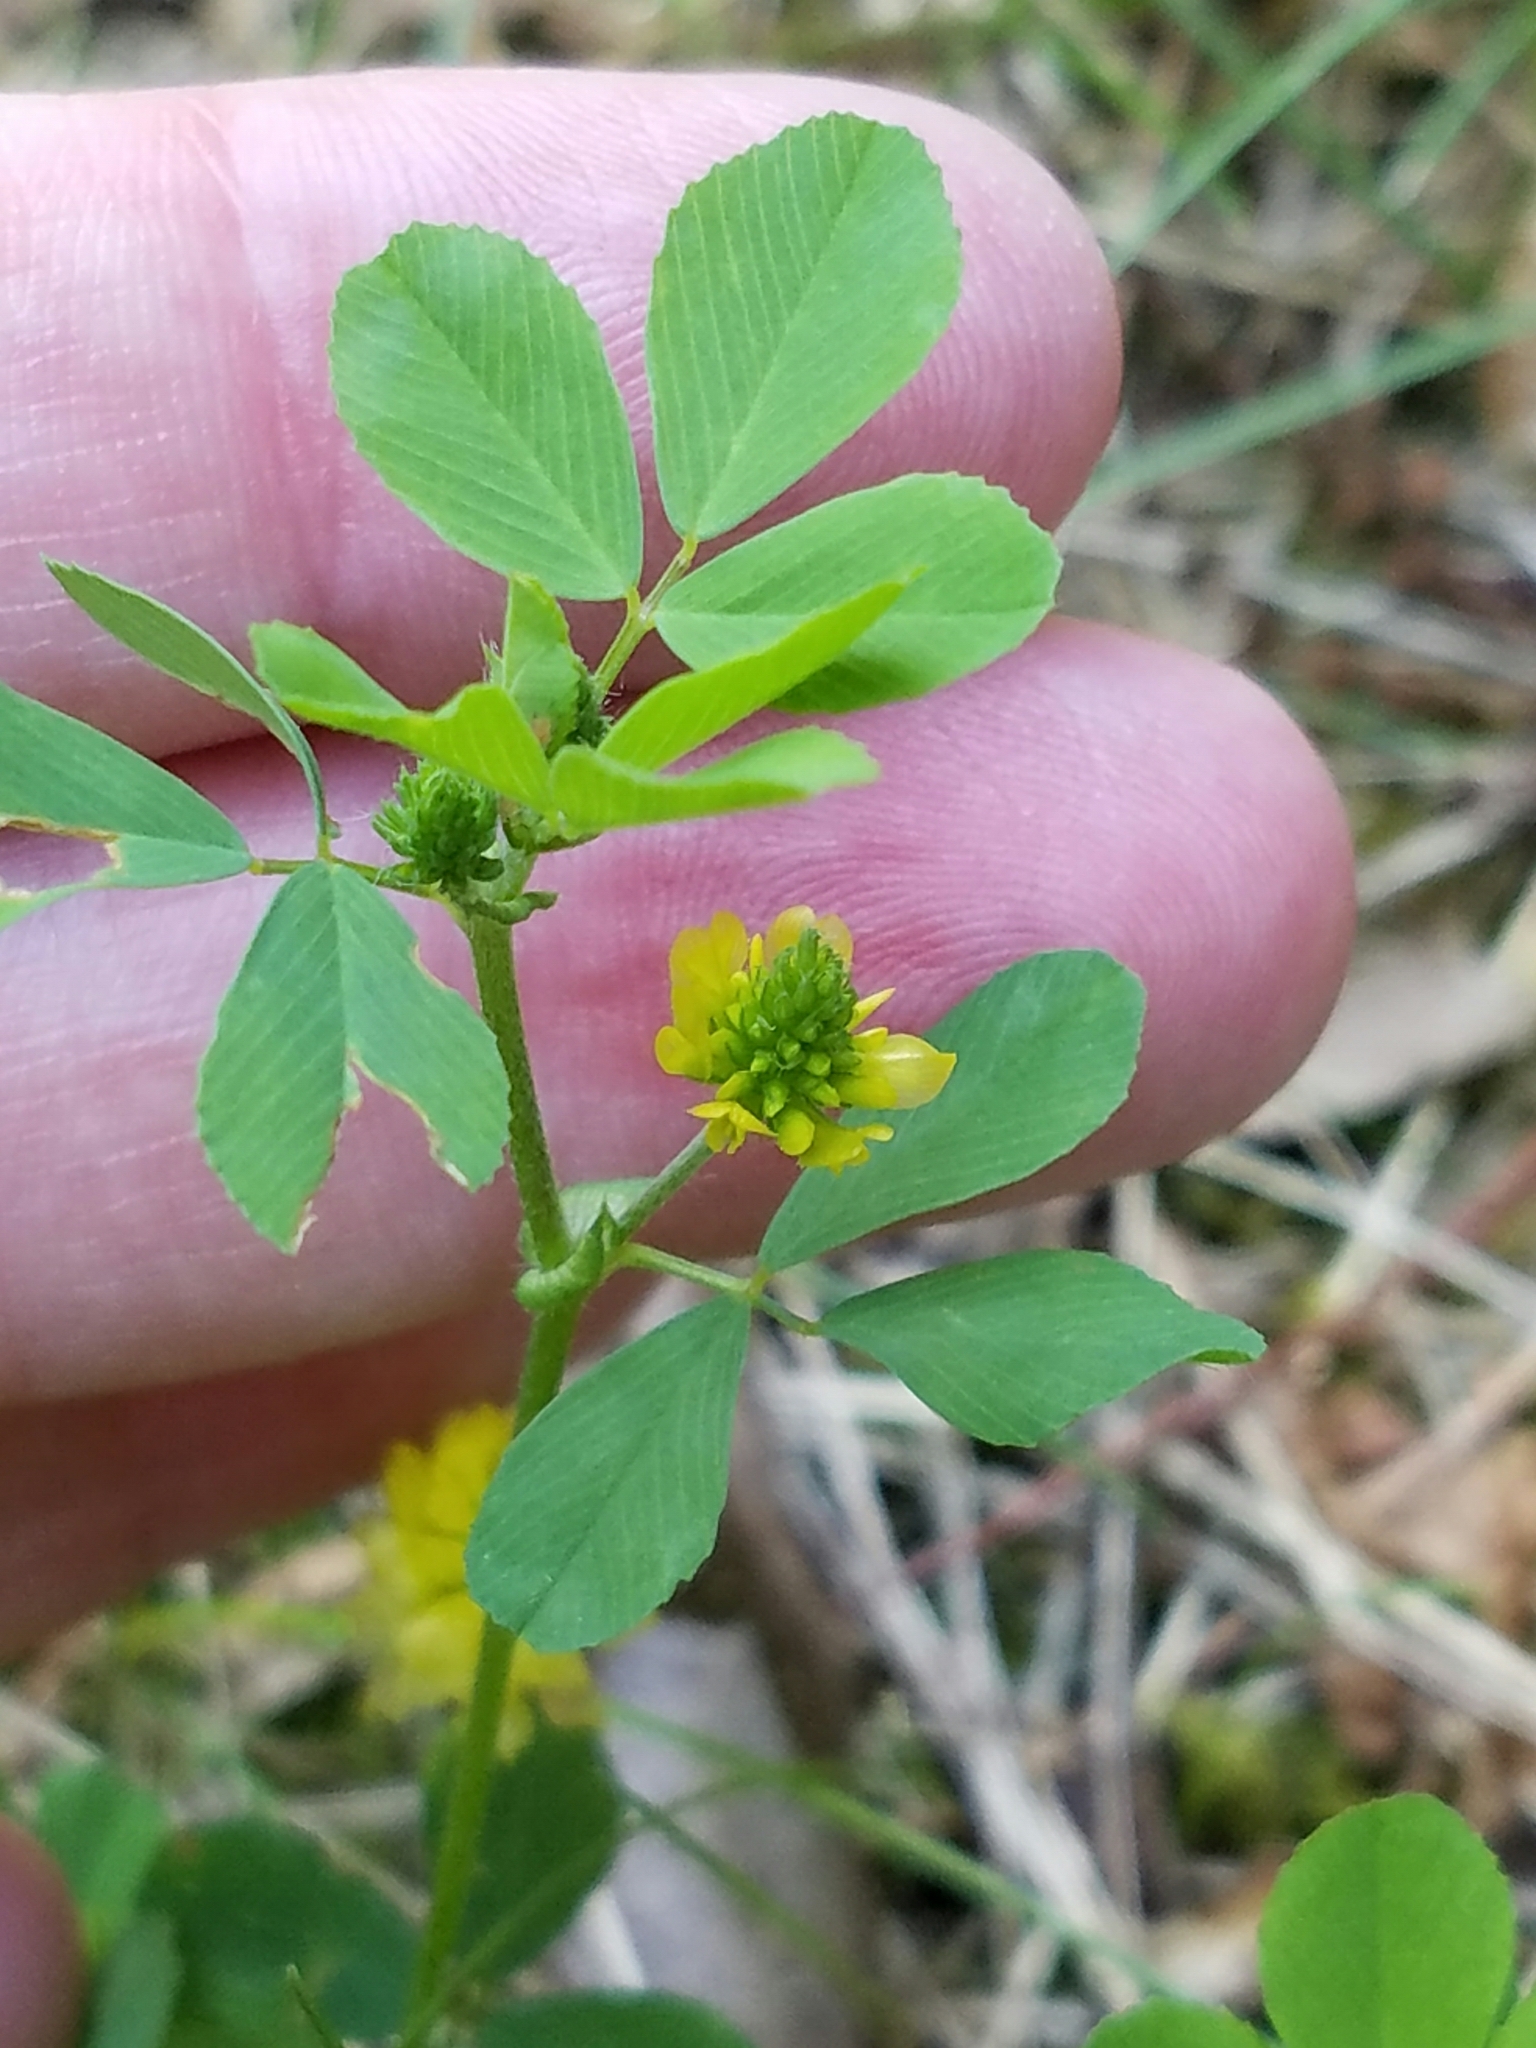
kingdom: Plantae
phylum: Tracheophyta
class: Magnoliopsida
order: Fabales
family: Fabaceae
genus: Trifolium
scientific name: Trifolium campestre
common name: Field clover
